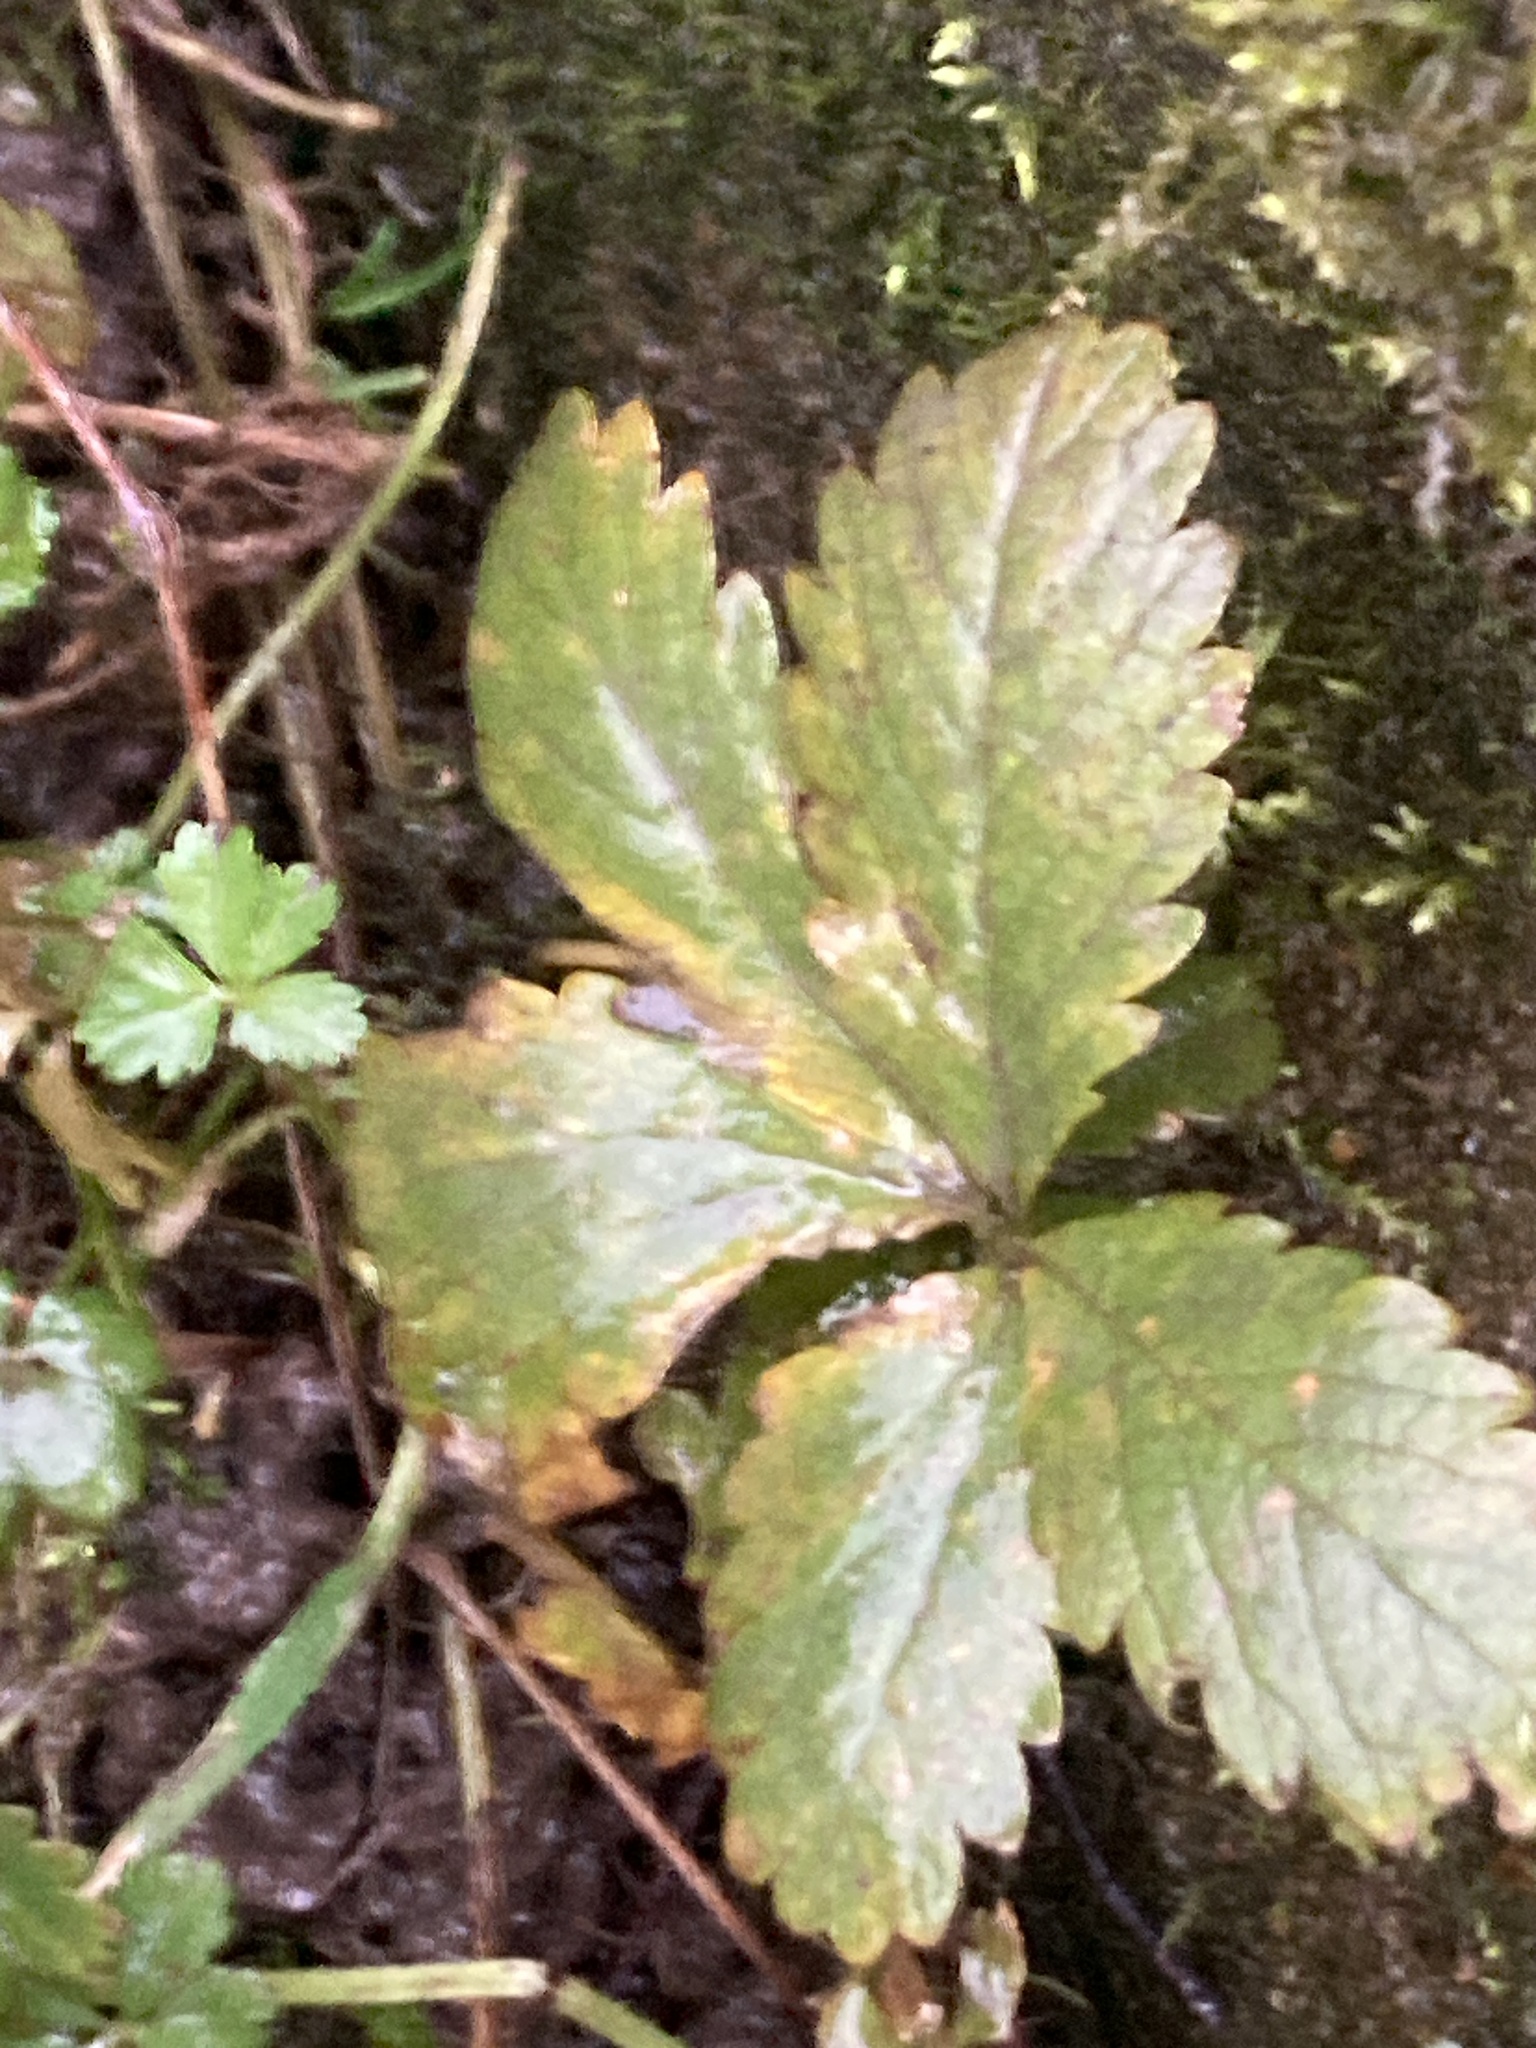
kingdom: Plantae
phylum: Tracheophyta
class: Magnoliopsida
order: Rosales
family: Rosaceae
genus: Potentilla
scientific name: Potentilla reptans
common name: Creeping cinquefoil
